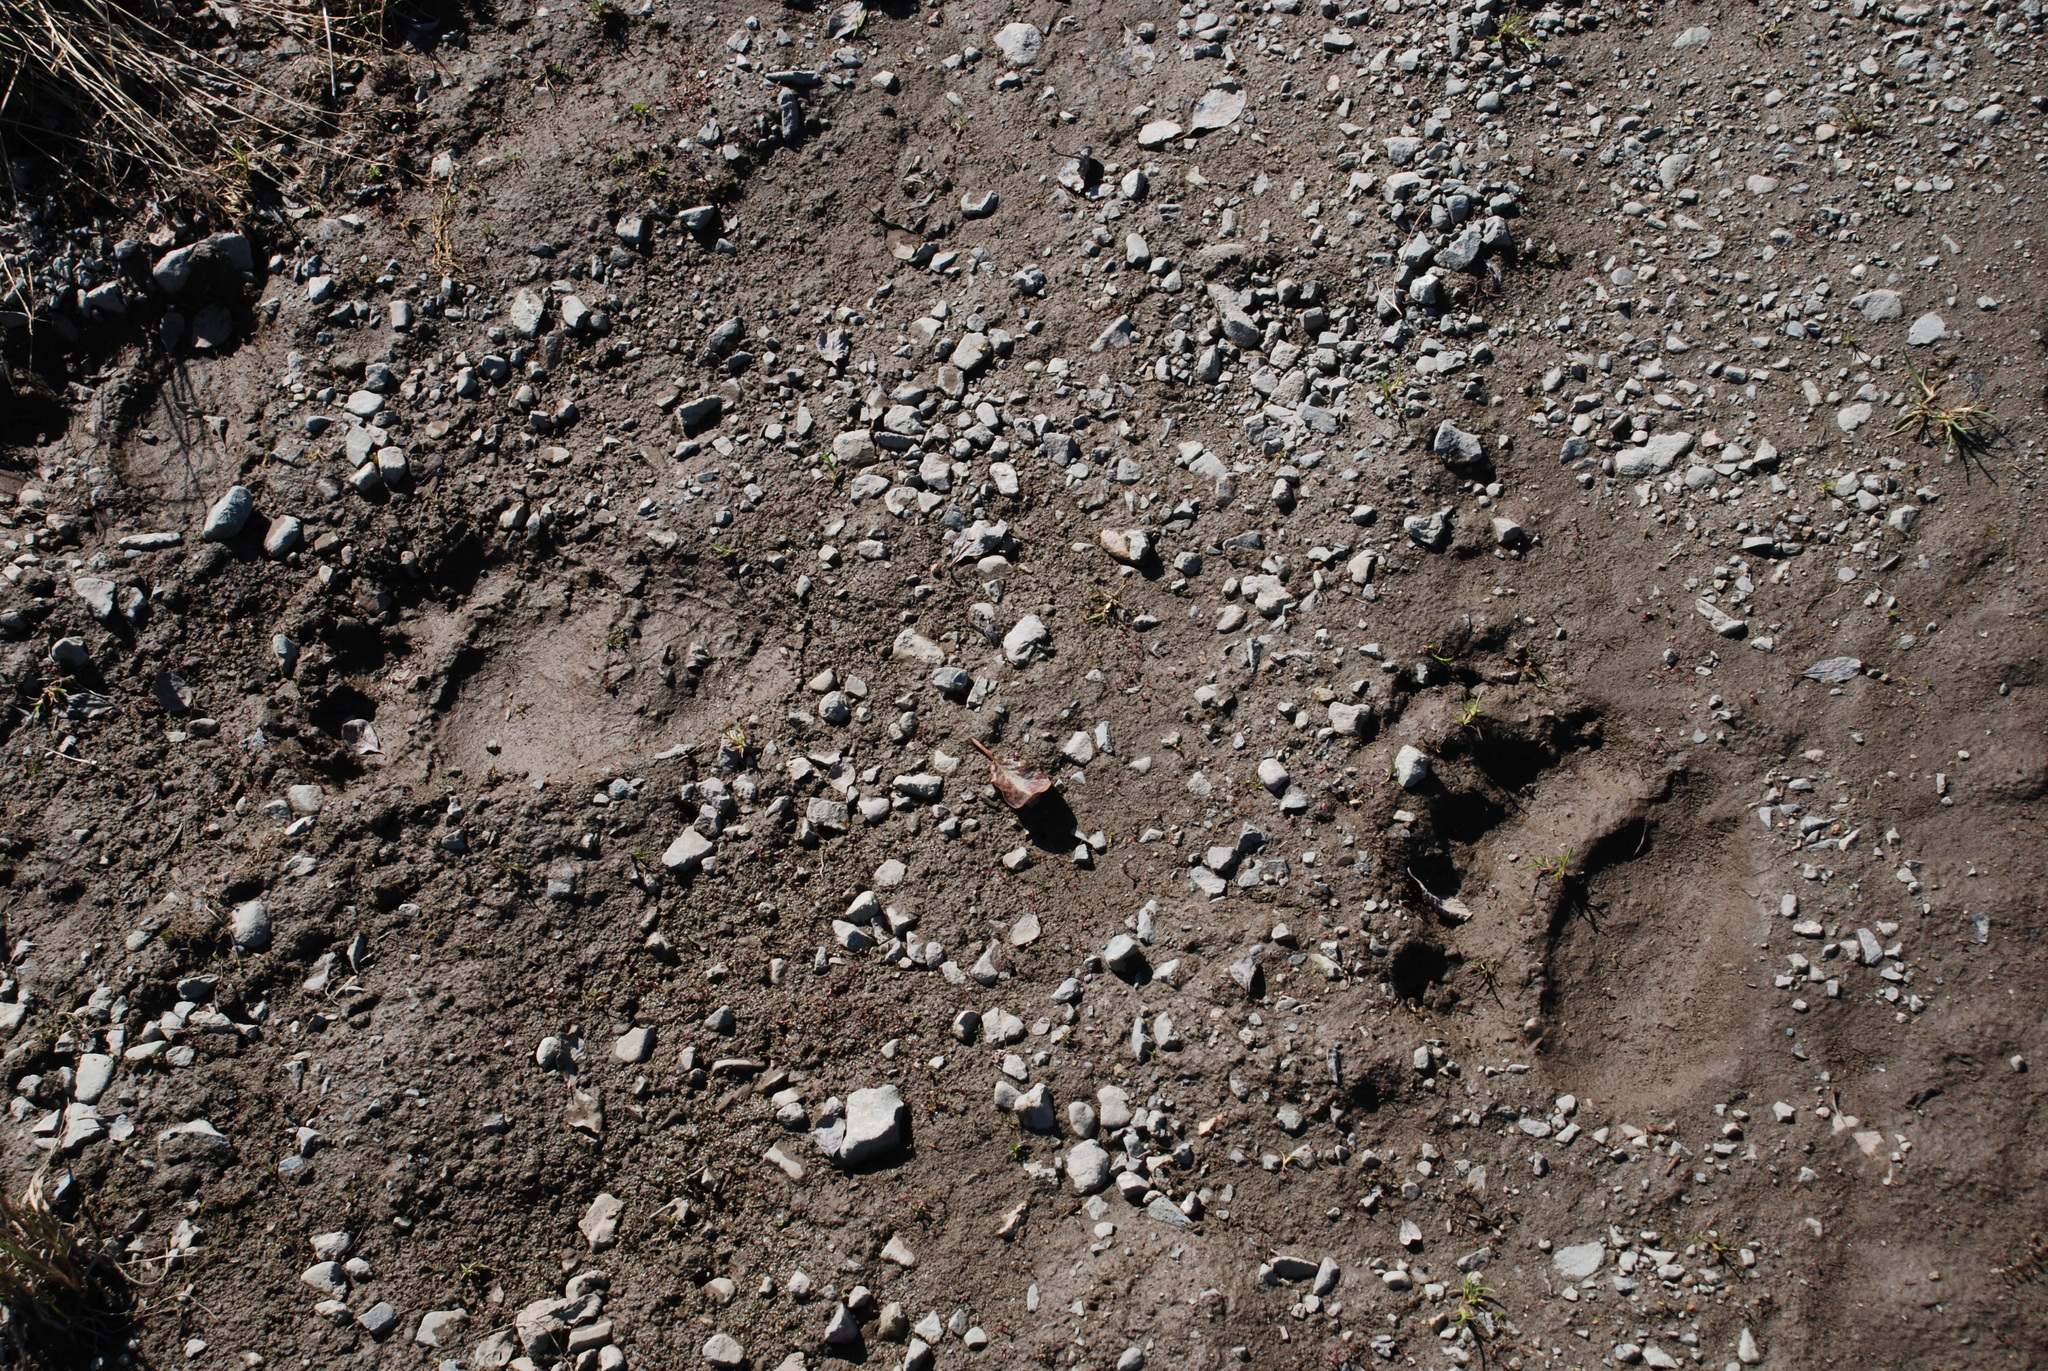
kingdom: Animalia
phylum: Chordata
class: Mammalia
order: Carnivora
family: Ursidae
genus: Ursus
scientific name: Ursus arctos
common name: Brown bear
